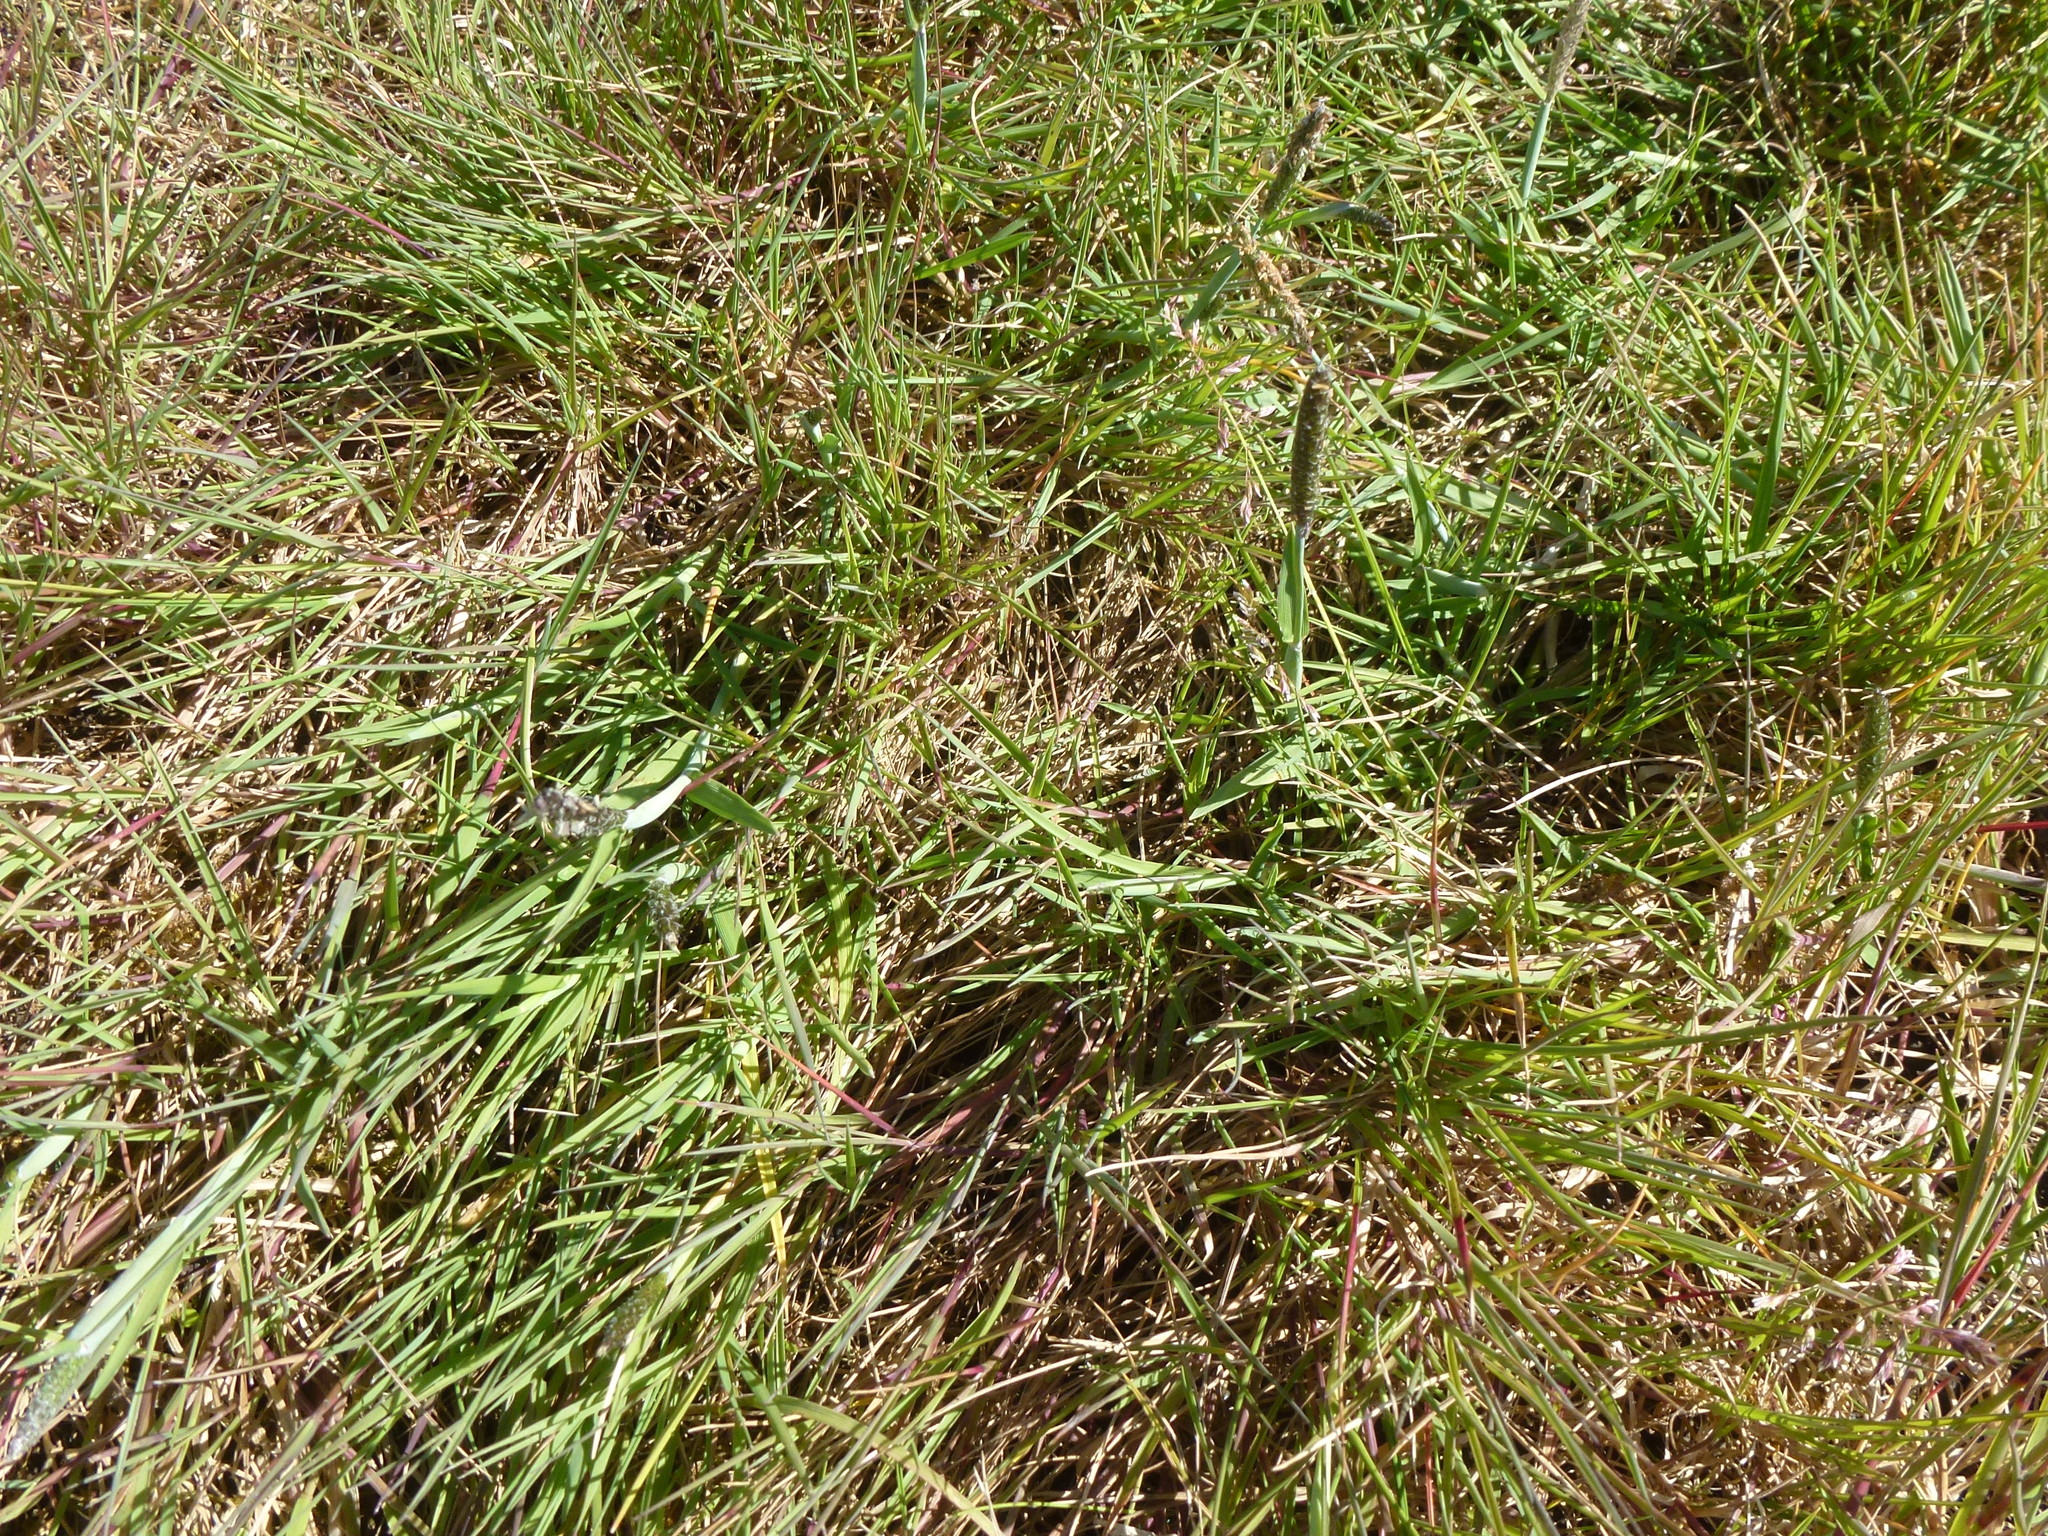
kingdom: Plantae
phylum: Tracheophyta
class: Liliopsida
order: Poales
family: Poaceae
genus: Alopecurus
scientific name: Alopecurus geniculatus
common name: Water foxtail
